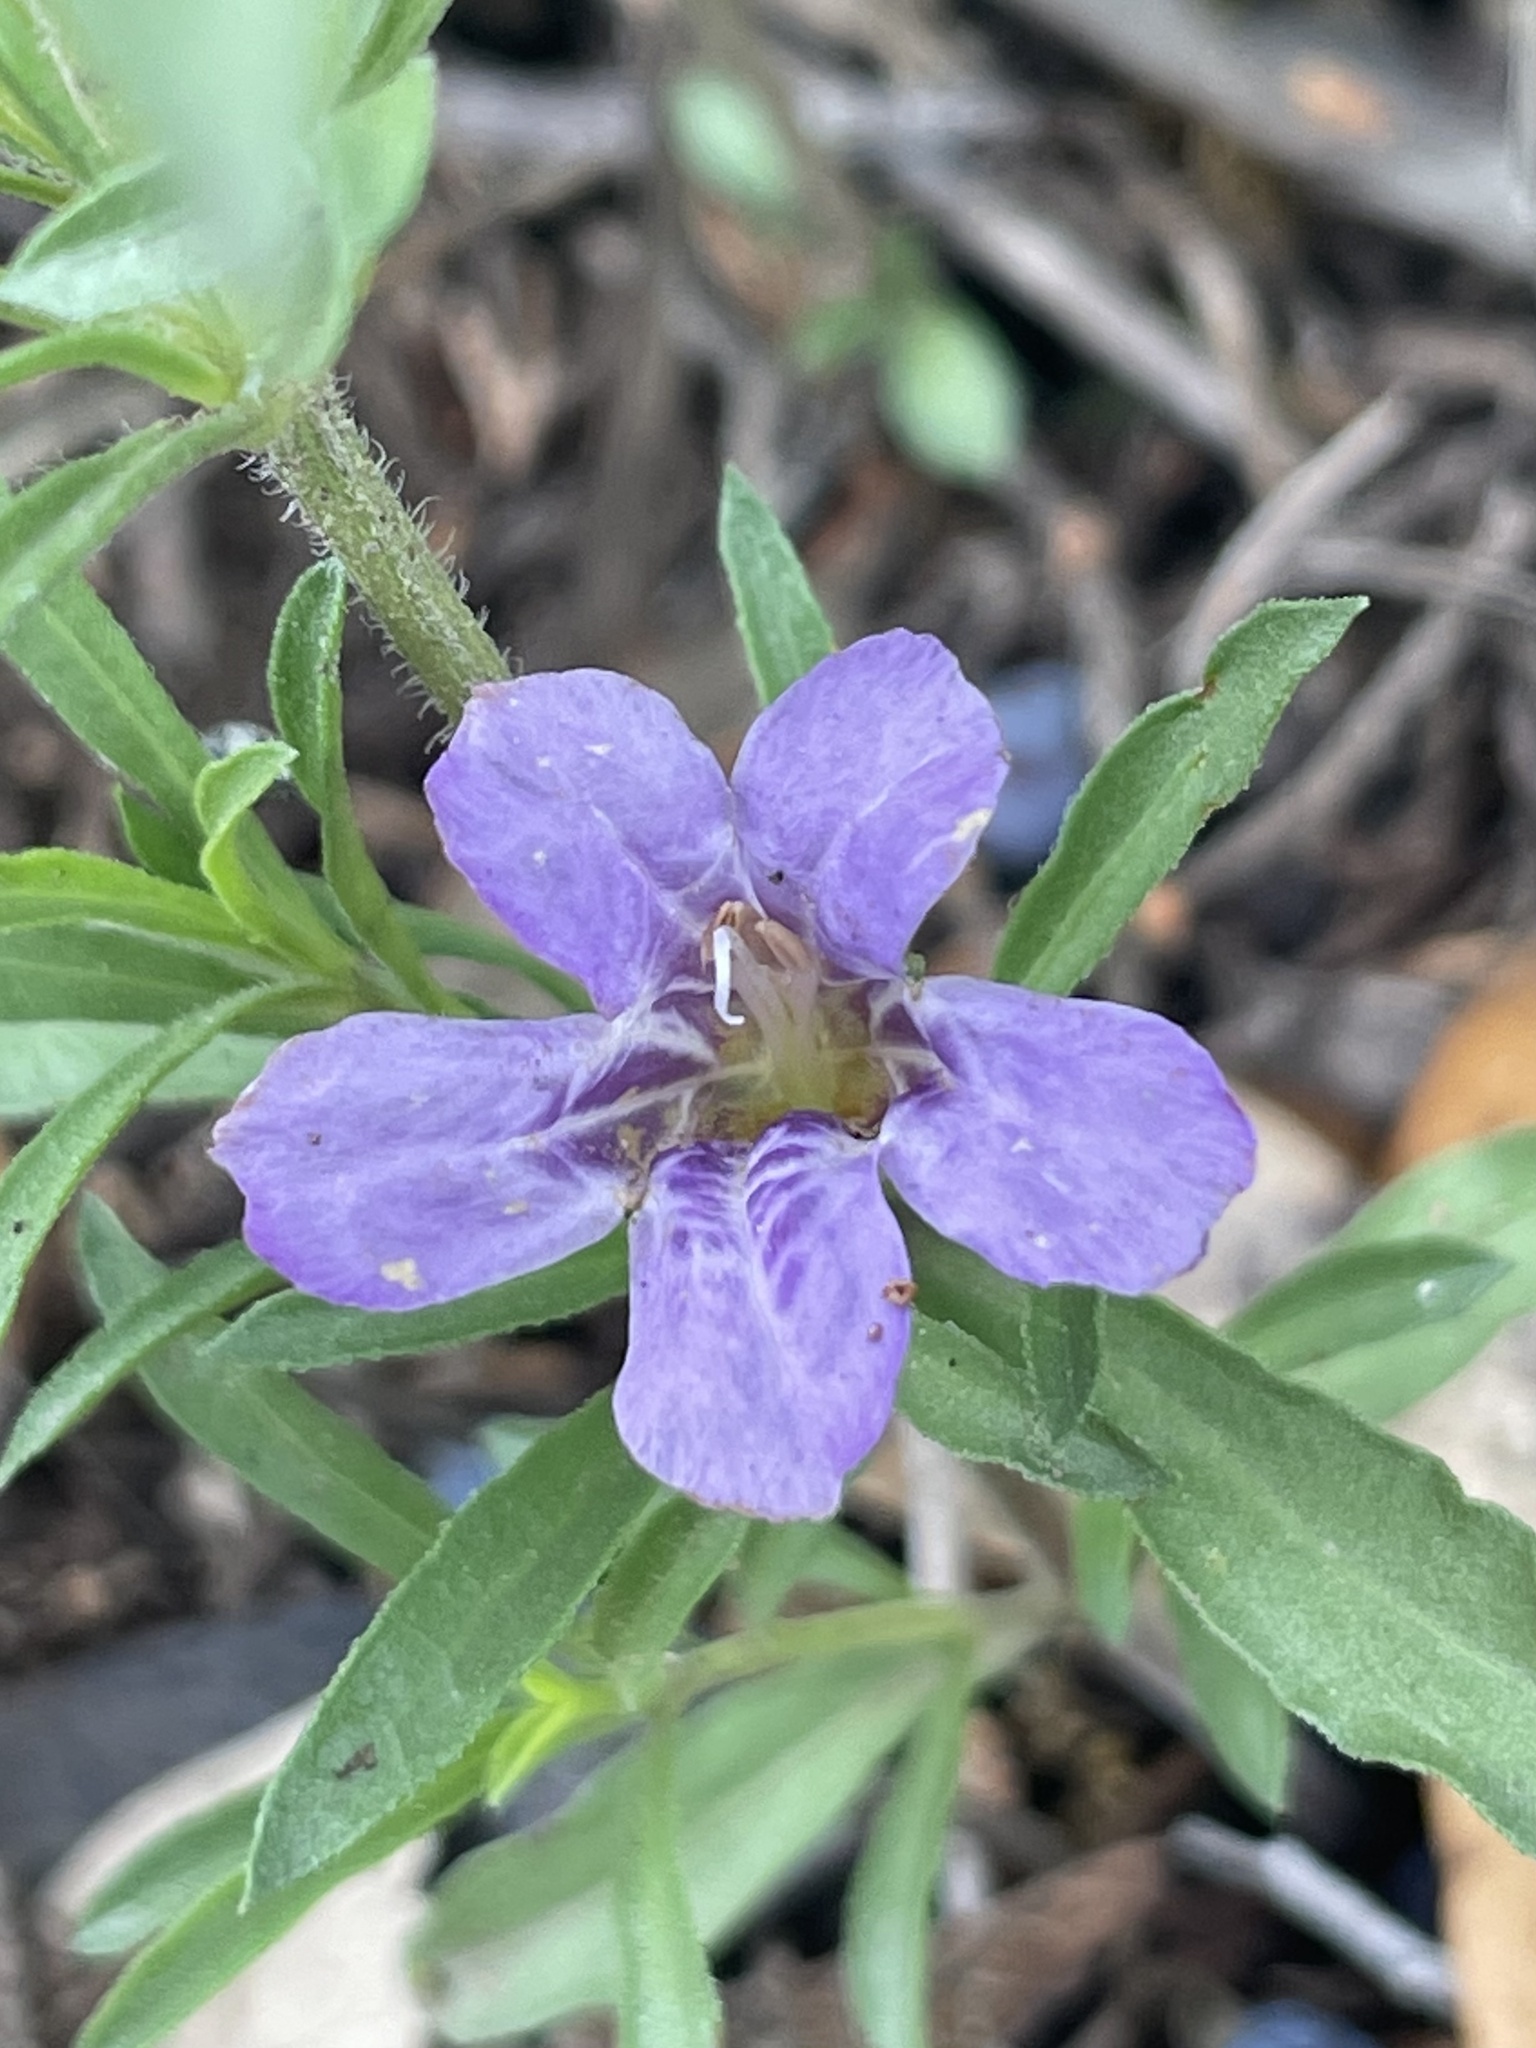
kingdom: Plantae
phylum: Tracheophyta
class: Magnoliopsida
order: Lamiales
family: Acanthaceae
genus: Dyschoriste
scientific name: Dyschoriste linearis
